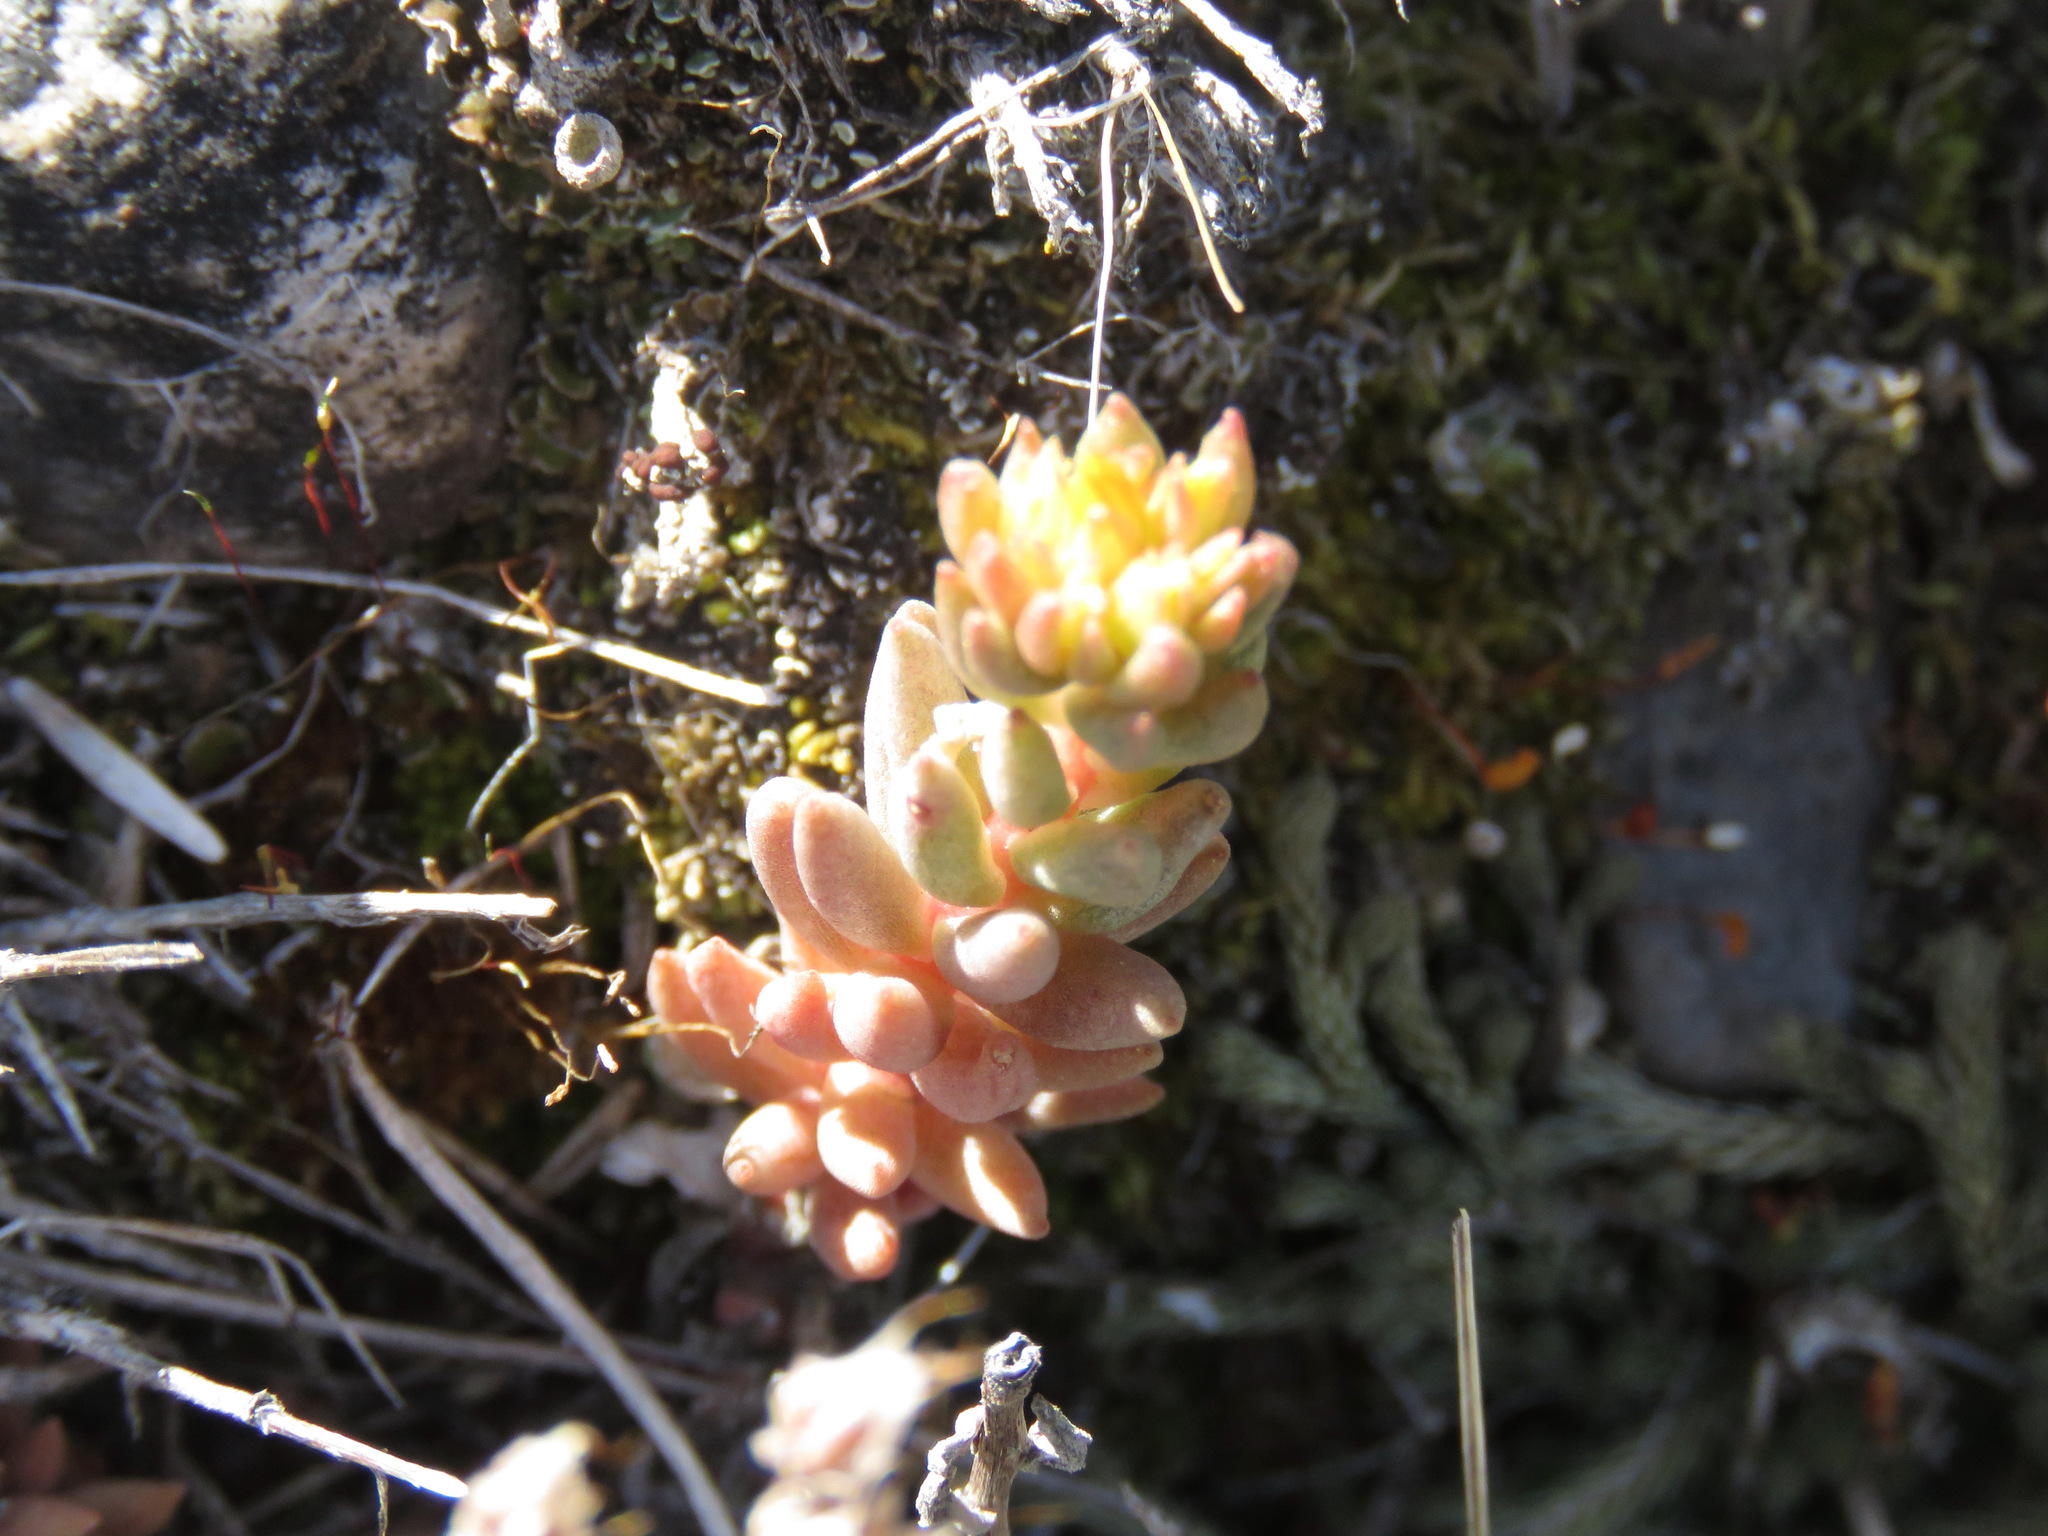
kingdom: Plantae
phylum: Tracheophyta
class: Magnoliopsida
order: Saxifragales
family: Crassulaceae
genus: Sedum
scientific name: Sedum lanceolatum
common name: Common stonecrop
